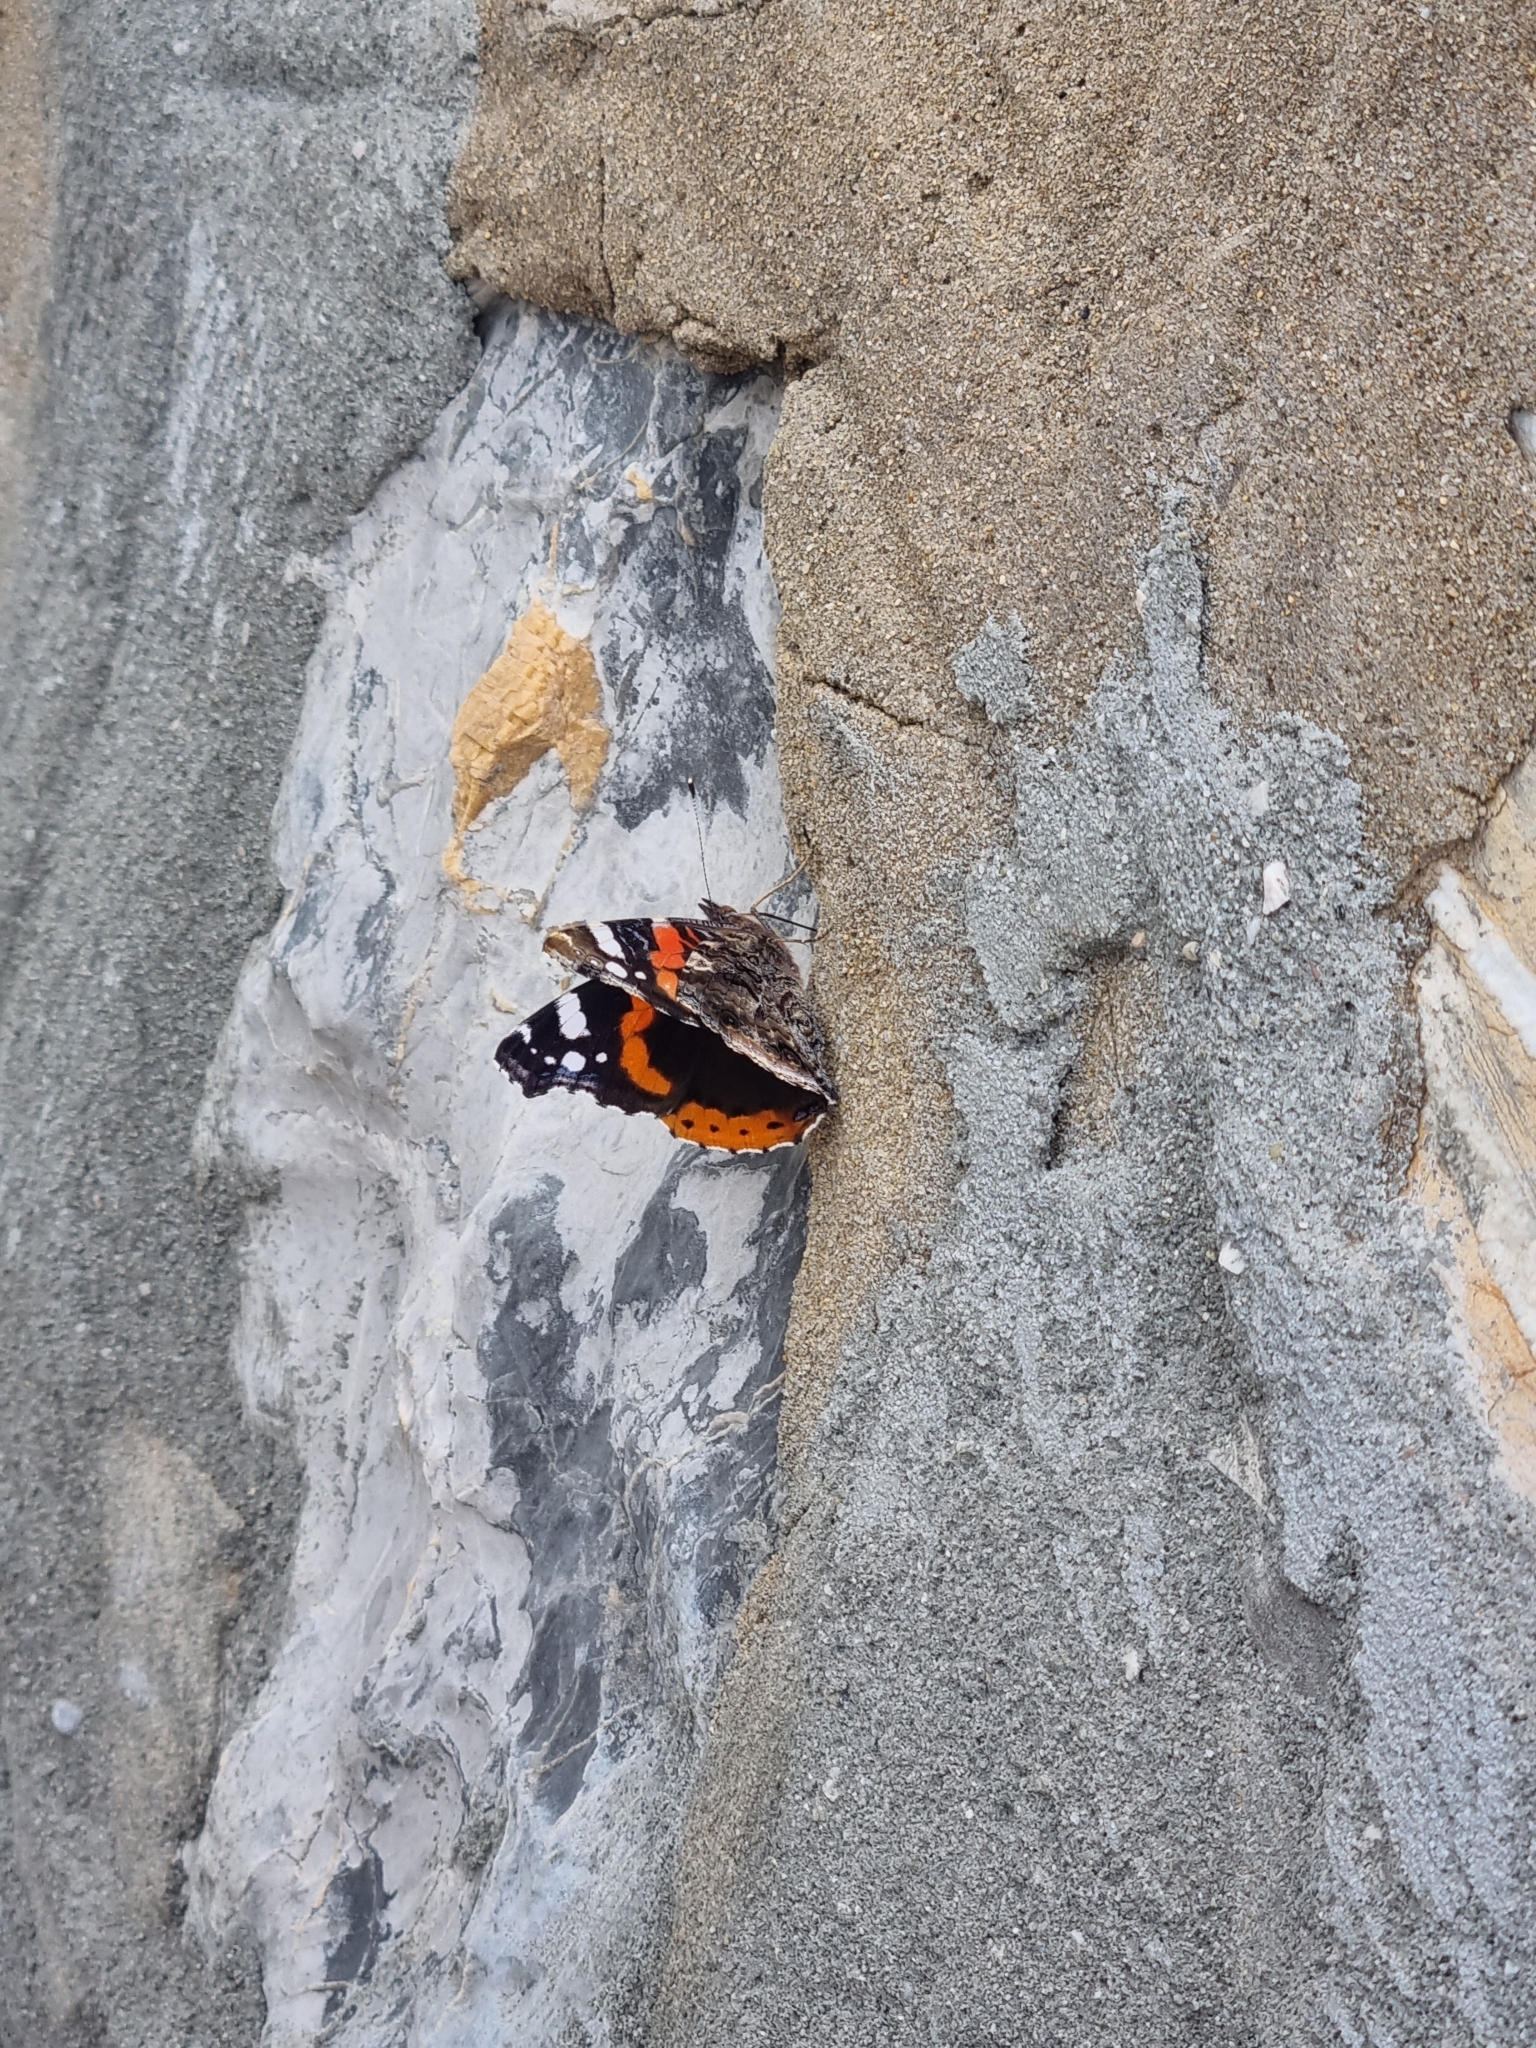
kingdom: Animalia
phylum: Arthropoda
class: Insecta
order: Lepidoptera
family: Nymphalidae
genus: Vanessa
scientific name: Vanessa atalanta
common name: Red admiral
